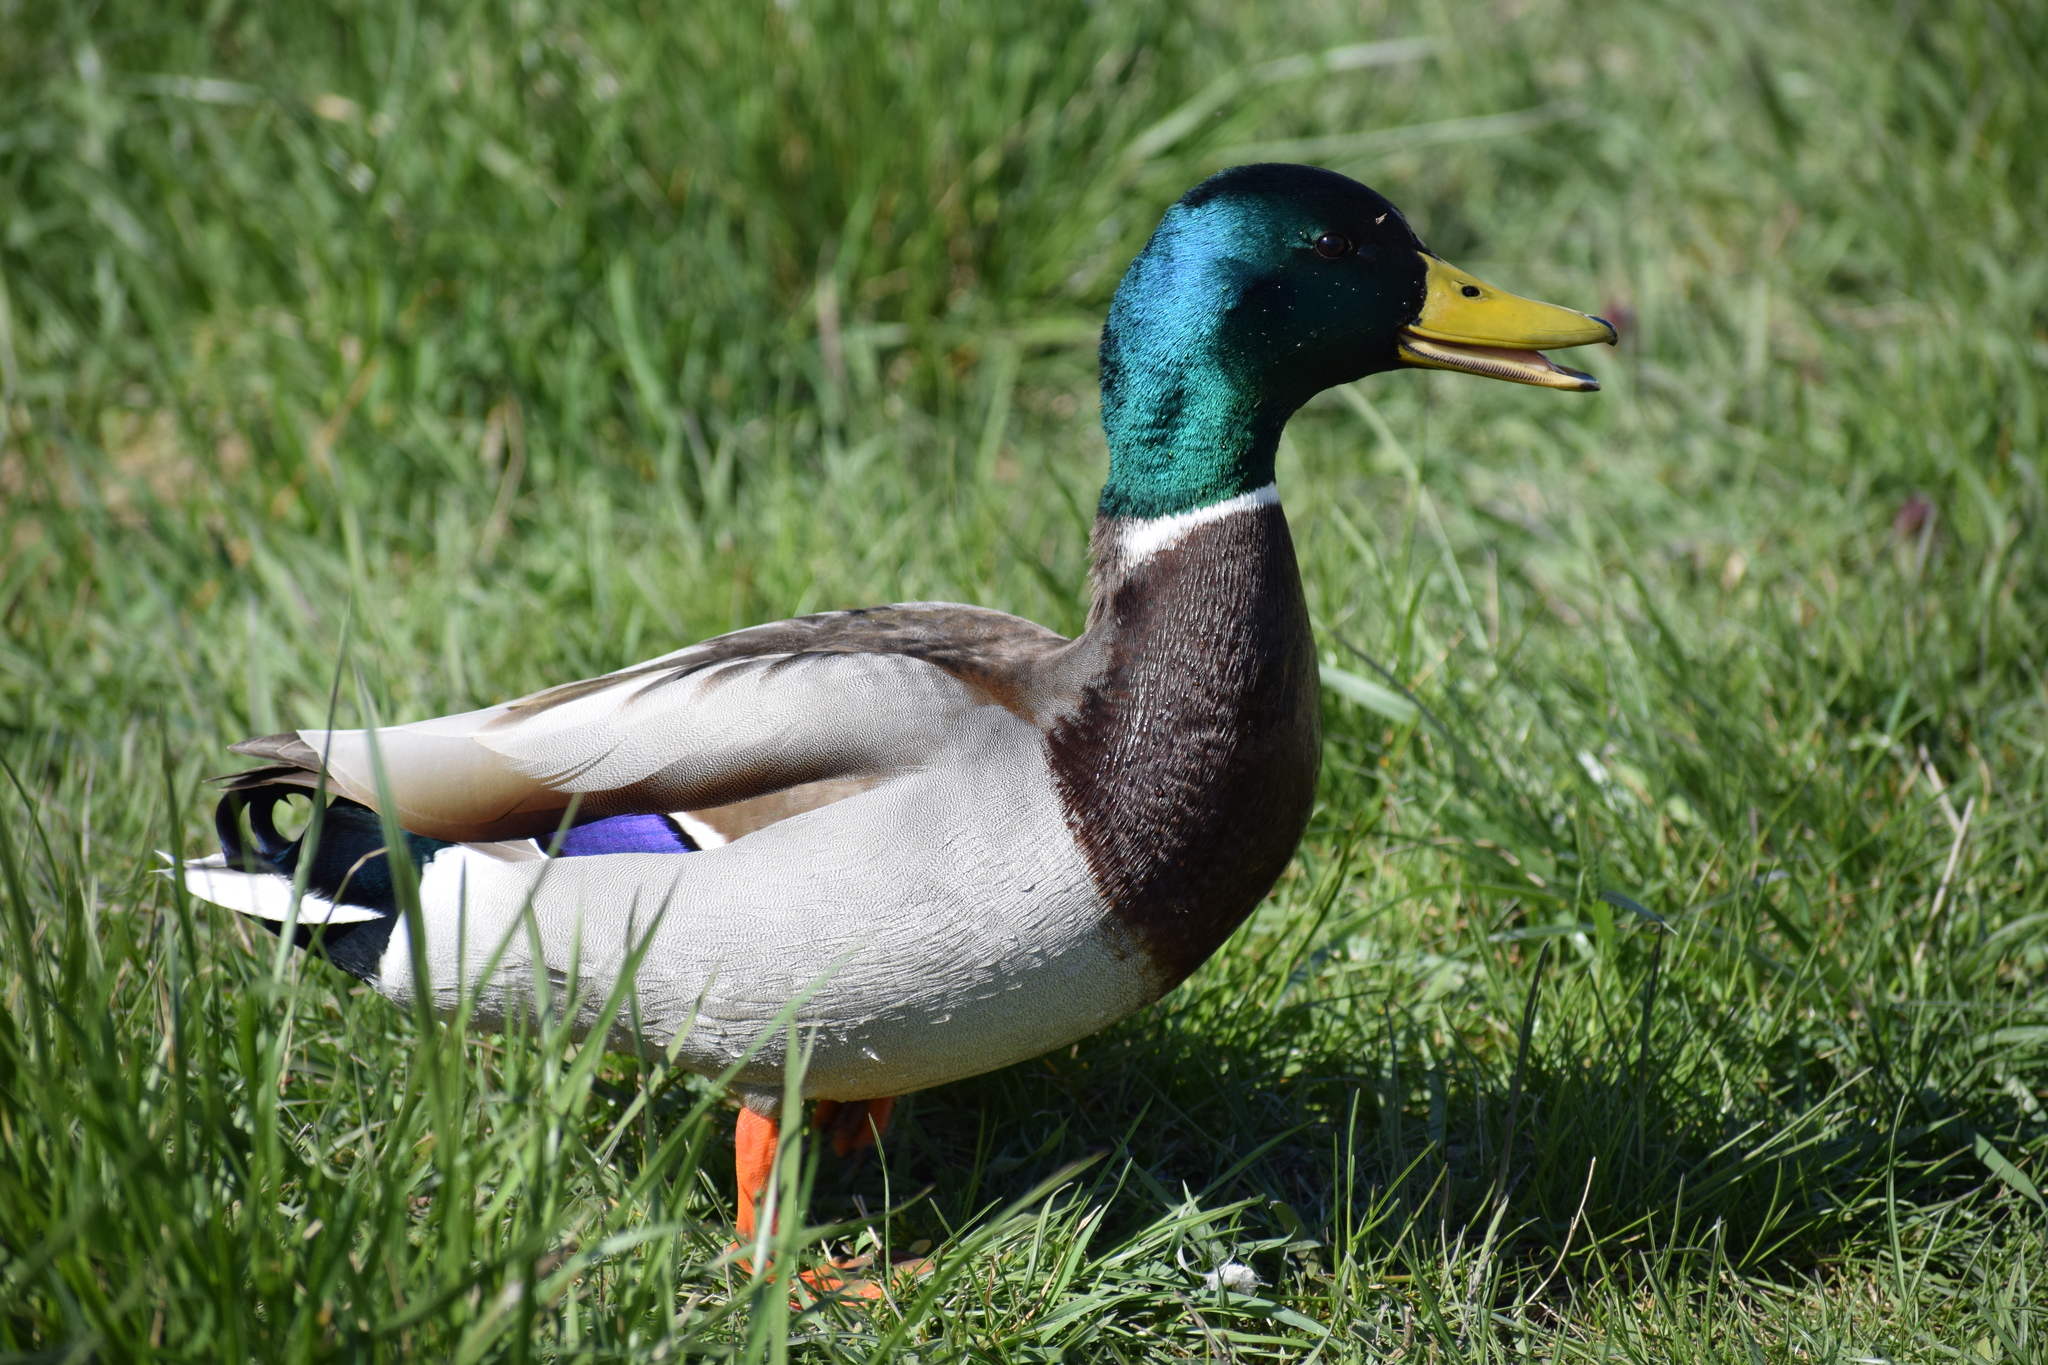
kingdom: Animalia
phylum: Chordata
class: Aves
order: Anseriformes
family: Anatidae
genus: Anas
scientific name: Anas platyrhynchos
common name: Mallard
